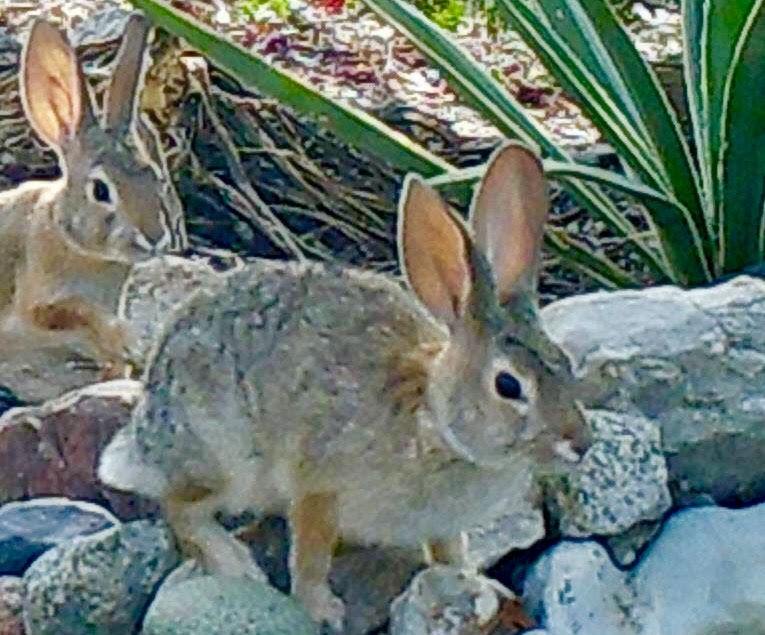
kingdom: Animalia
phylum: Chordata
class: Mammalia
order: Lagomorpha
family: Leporidae
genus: Sylvilagus
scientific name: Sylvilagus audubonii
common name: Desert cottontail
